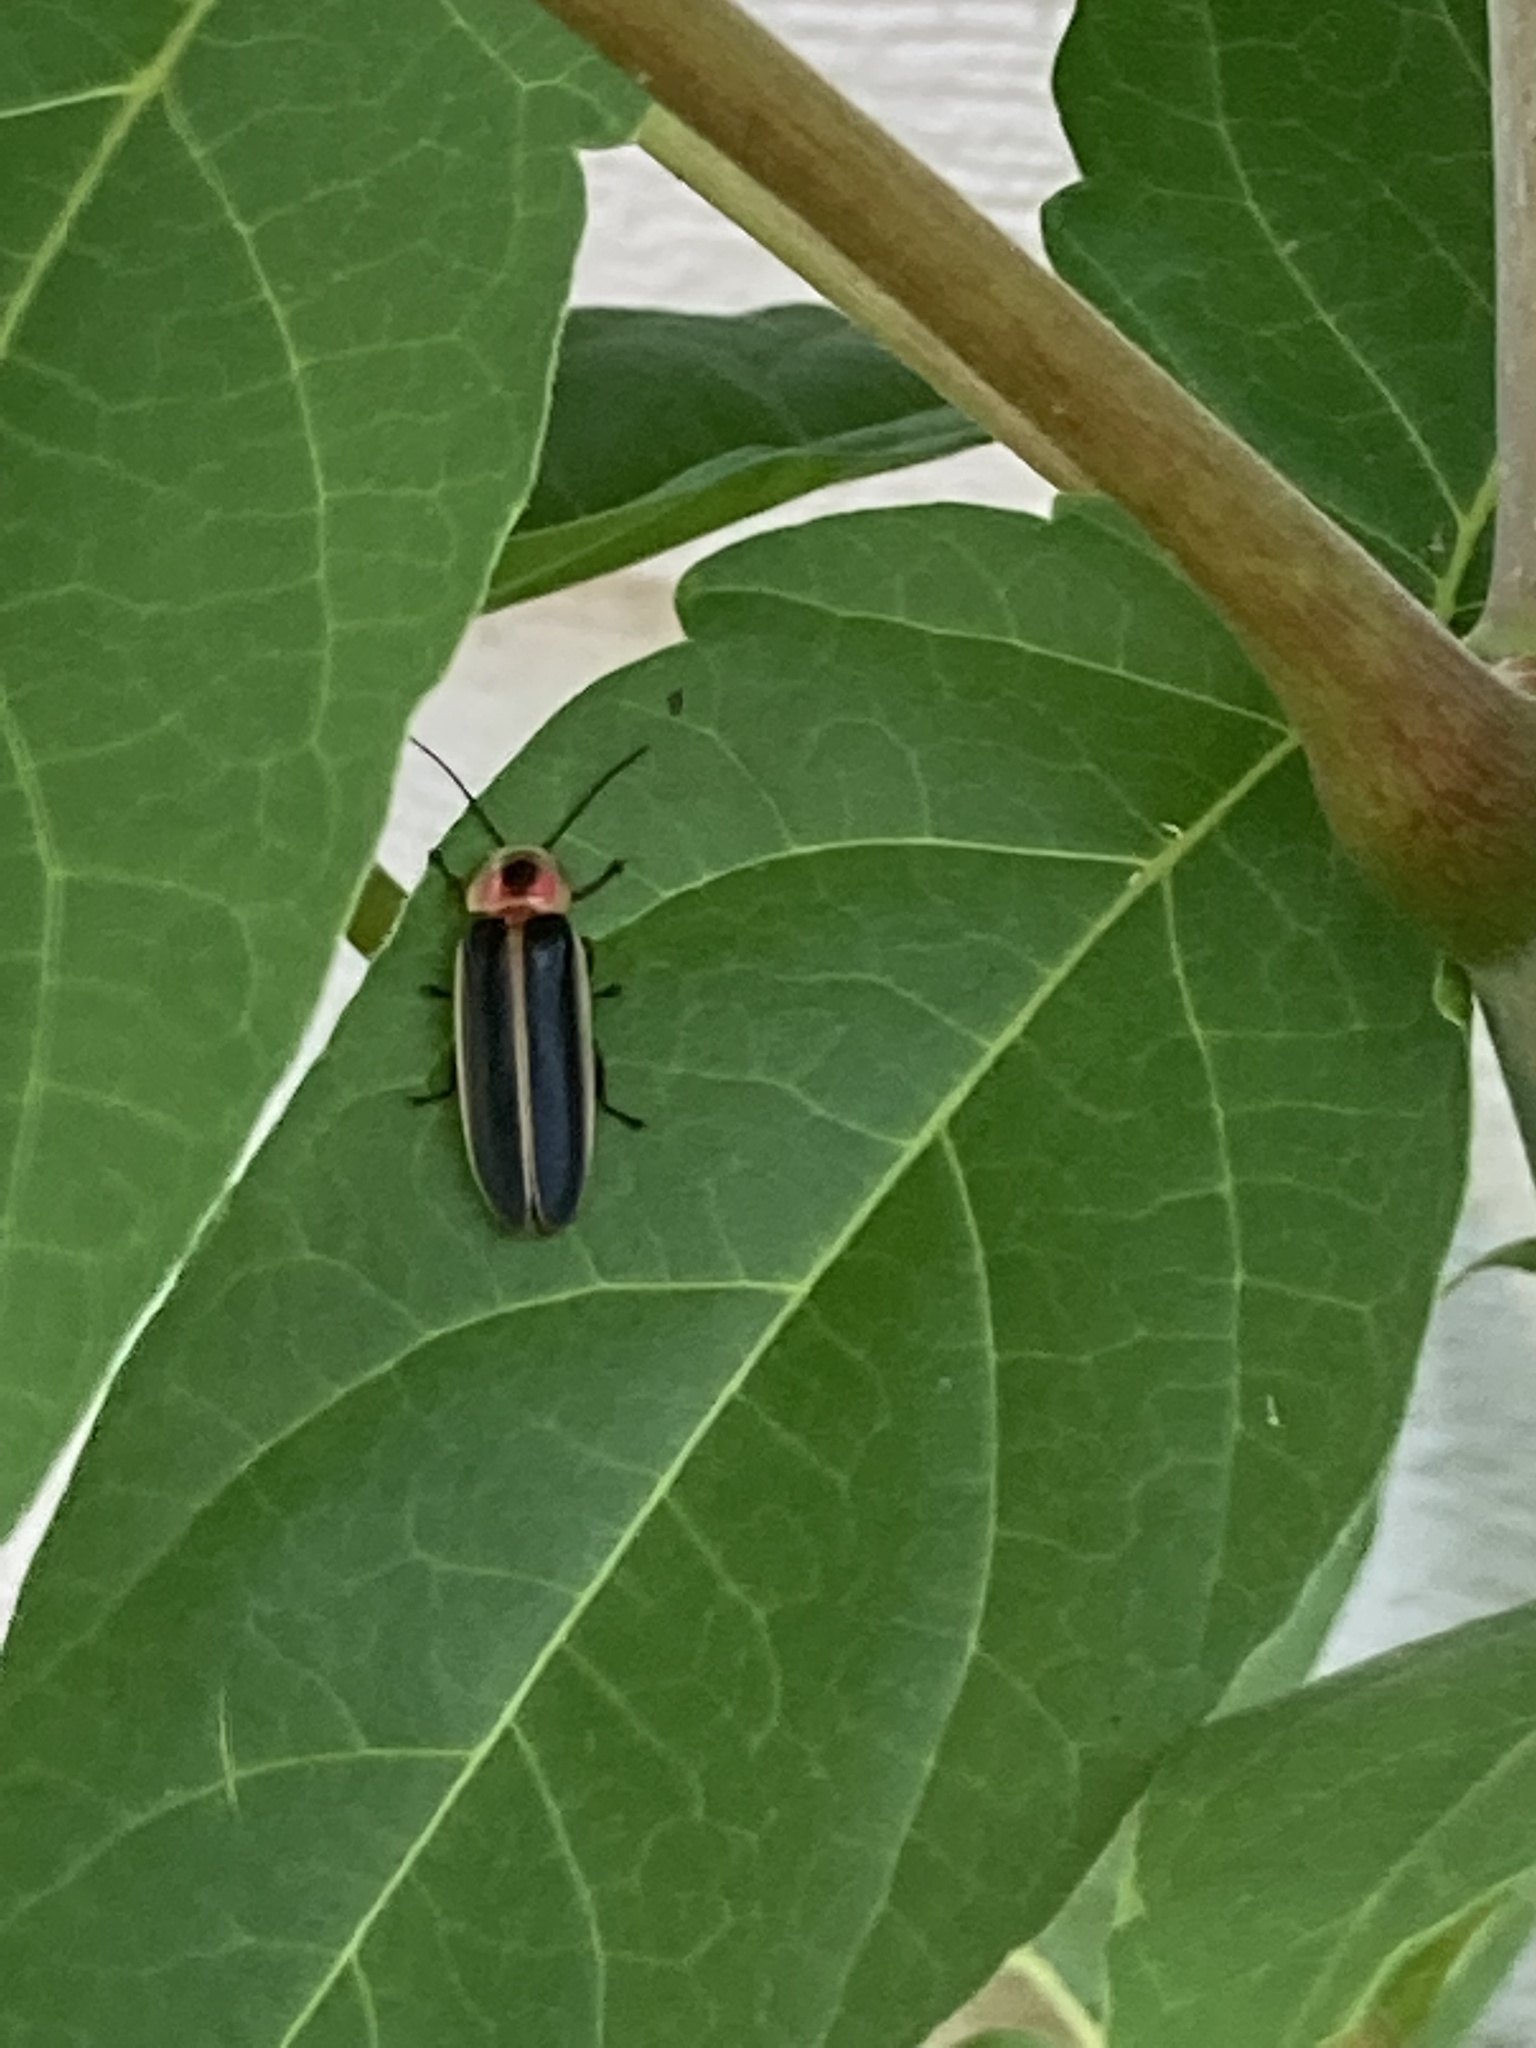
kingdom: Animalia
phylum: Arthropoda
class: Insecta
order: Coleoptera
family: Lampyridae
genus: Photinus
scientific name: Photinus pyralis
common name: Big dipper firefly
